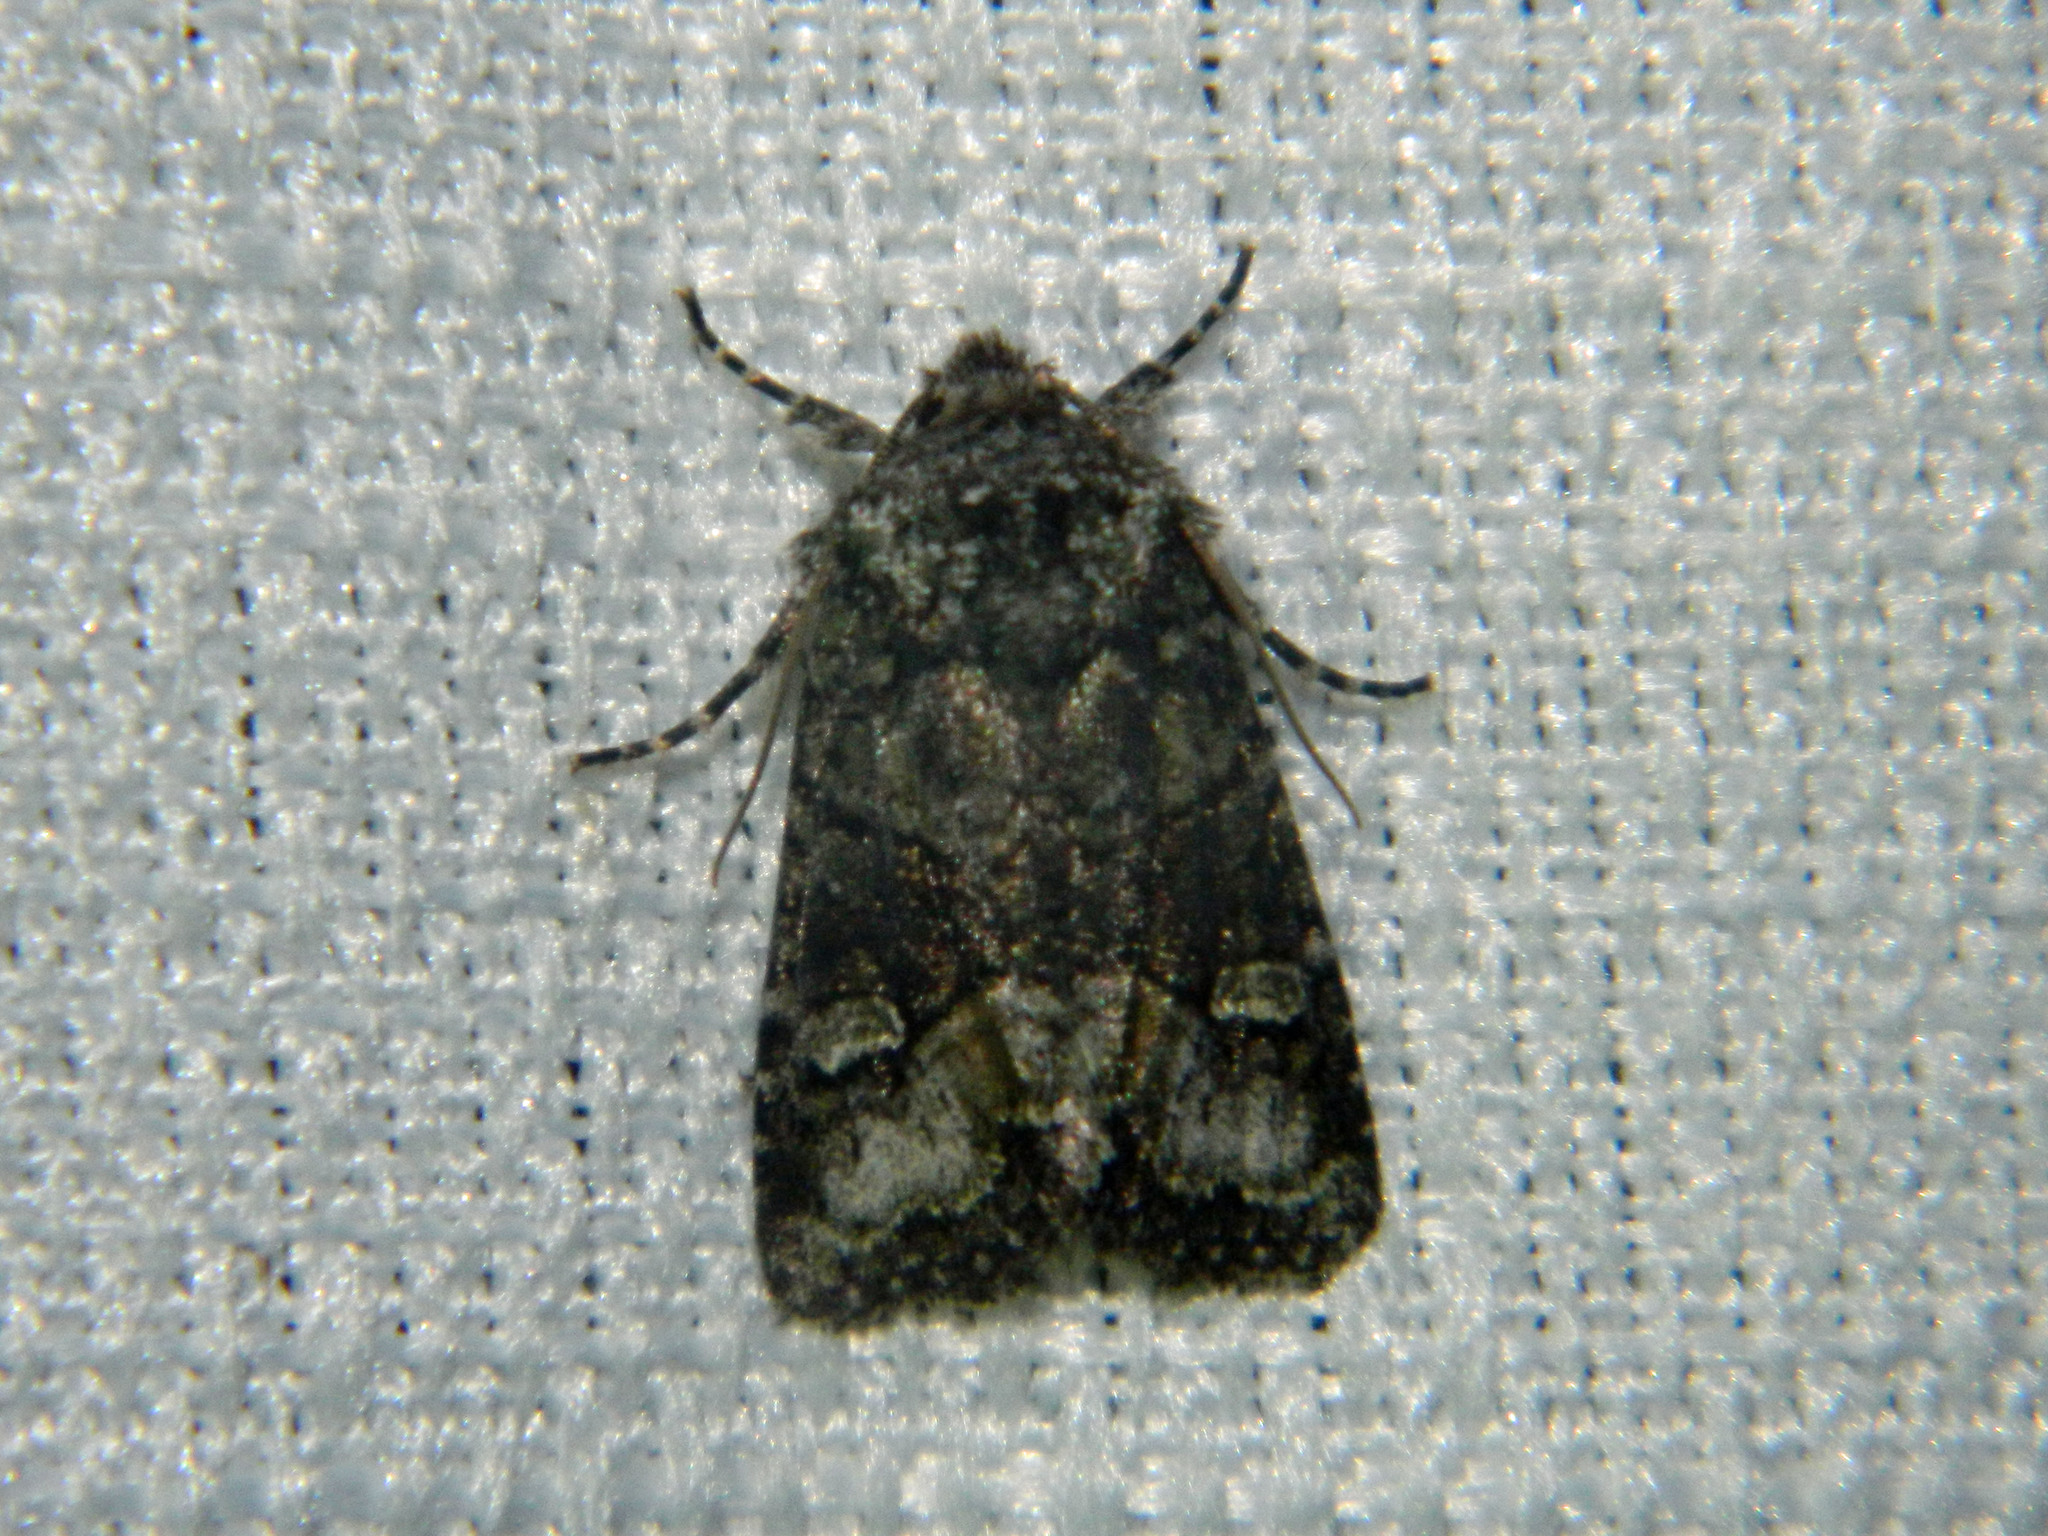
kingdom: Animalia
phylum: Arthropoda
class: Insecta
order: Lepidoptera
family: Noctuidae
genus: Lacinipolia
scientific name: Lacinipolia olivacea
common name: Olive arches moth
